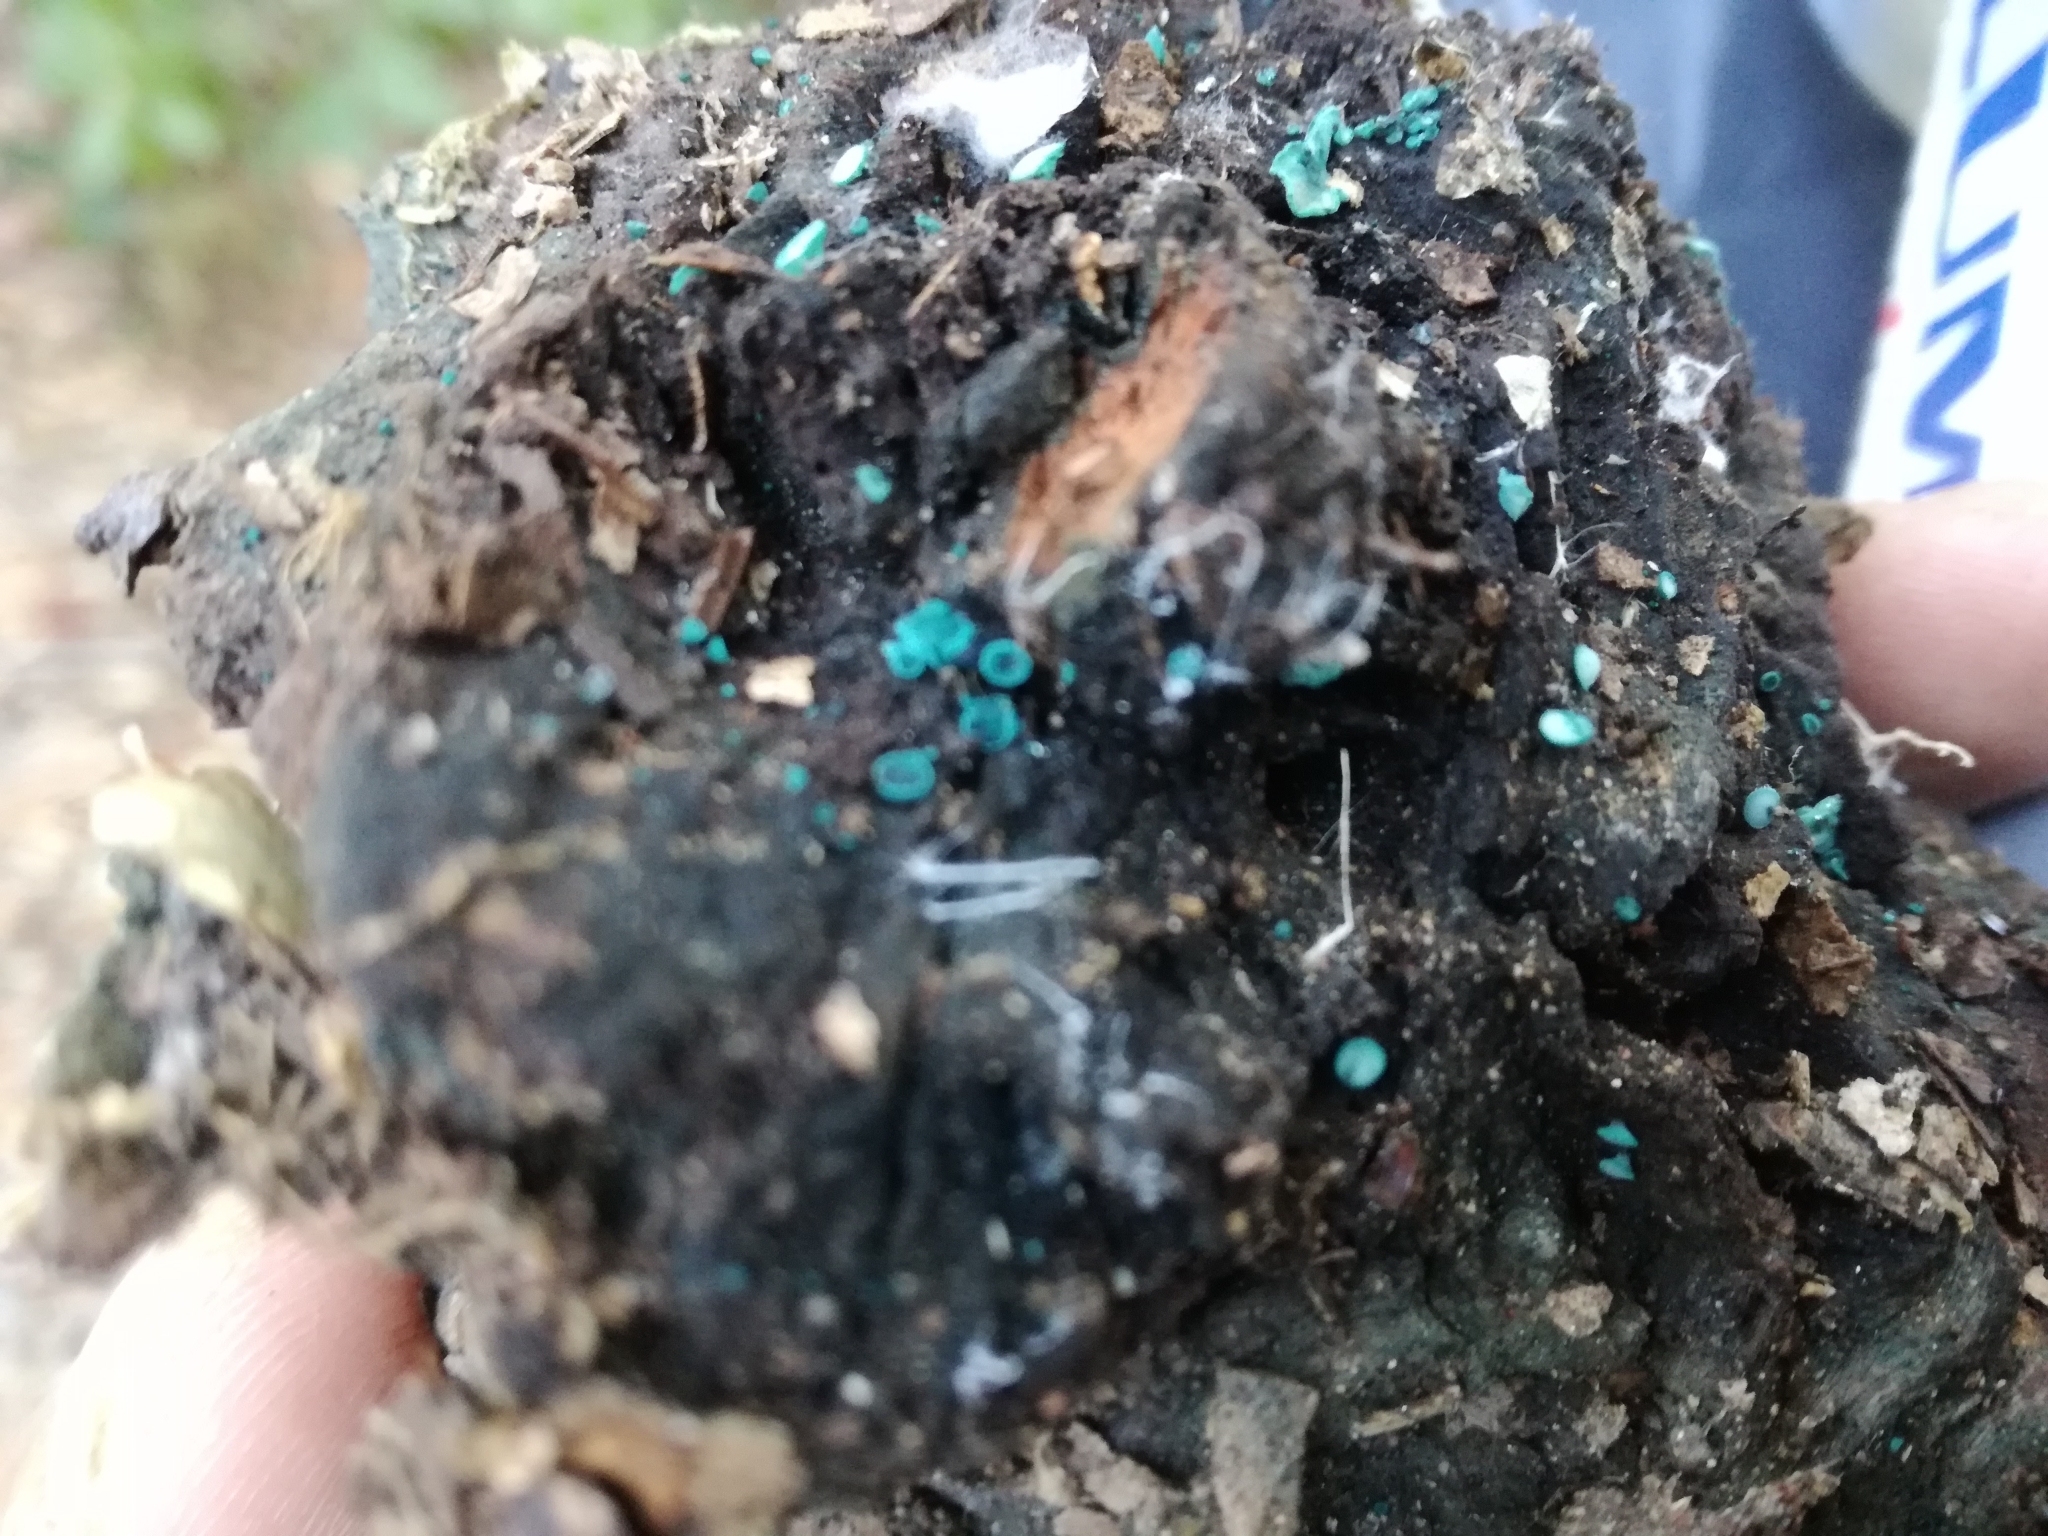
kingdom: Fungi
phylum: Ascomycota
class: Leotiomycetes
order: Helotiales
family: Chlorociboriaceae
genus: Chlorociboria
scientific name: Chlorociboria aeruginosa
